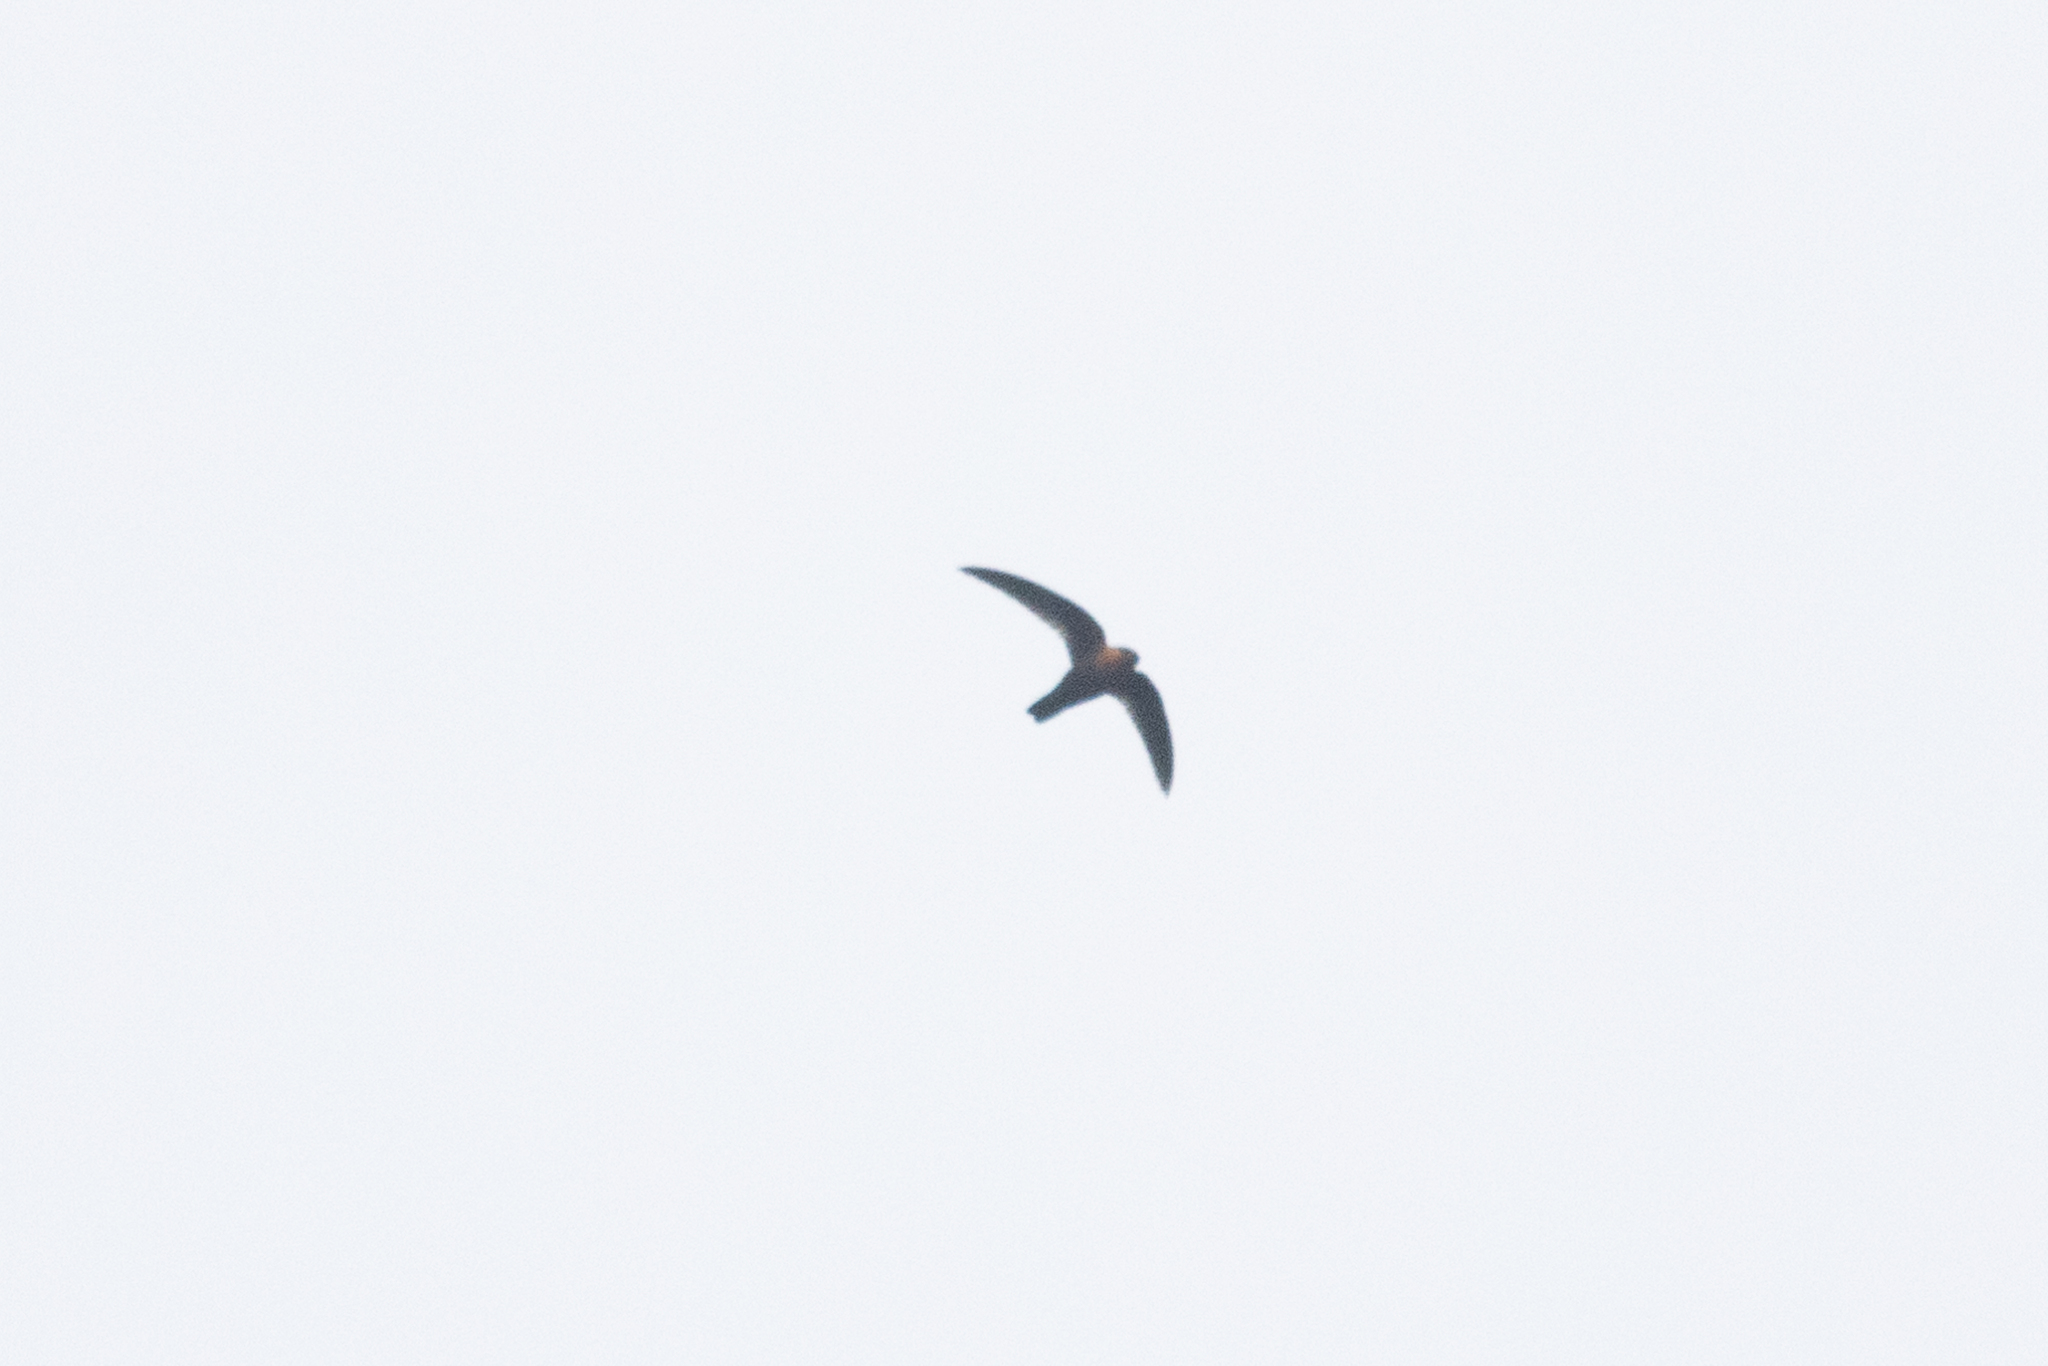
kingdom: Animalia
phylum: Chordata
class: Aves
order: Apodiformes
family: Apodidae
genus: Streptoprocne
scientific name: Streptoprocne rutila
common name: Chestnut-collared swift
